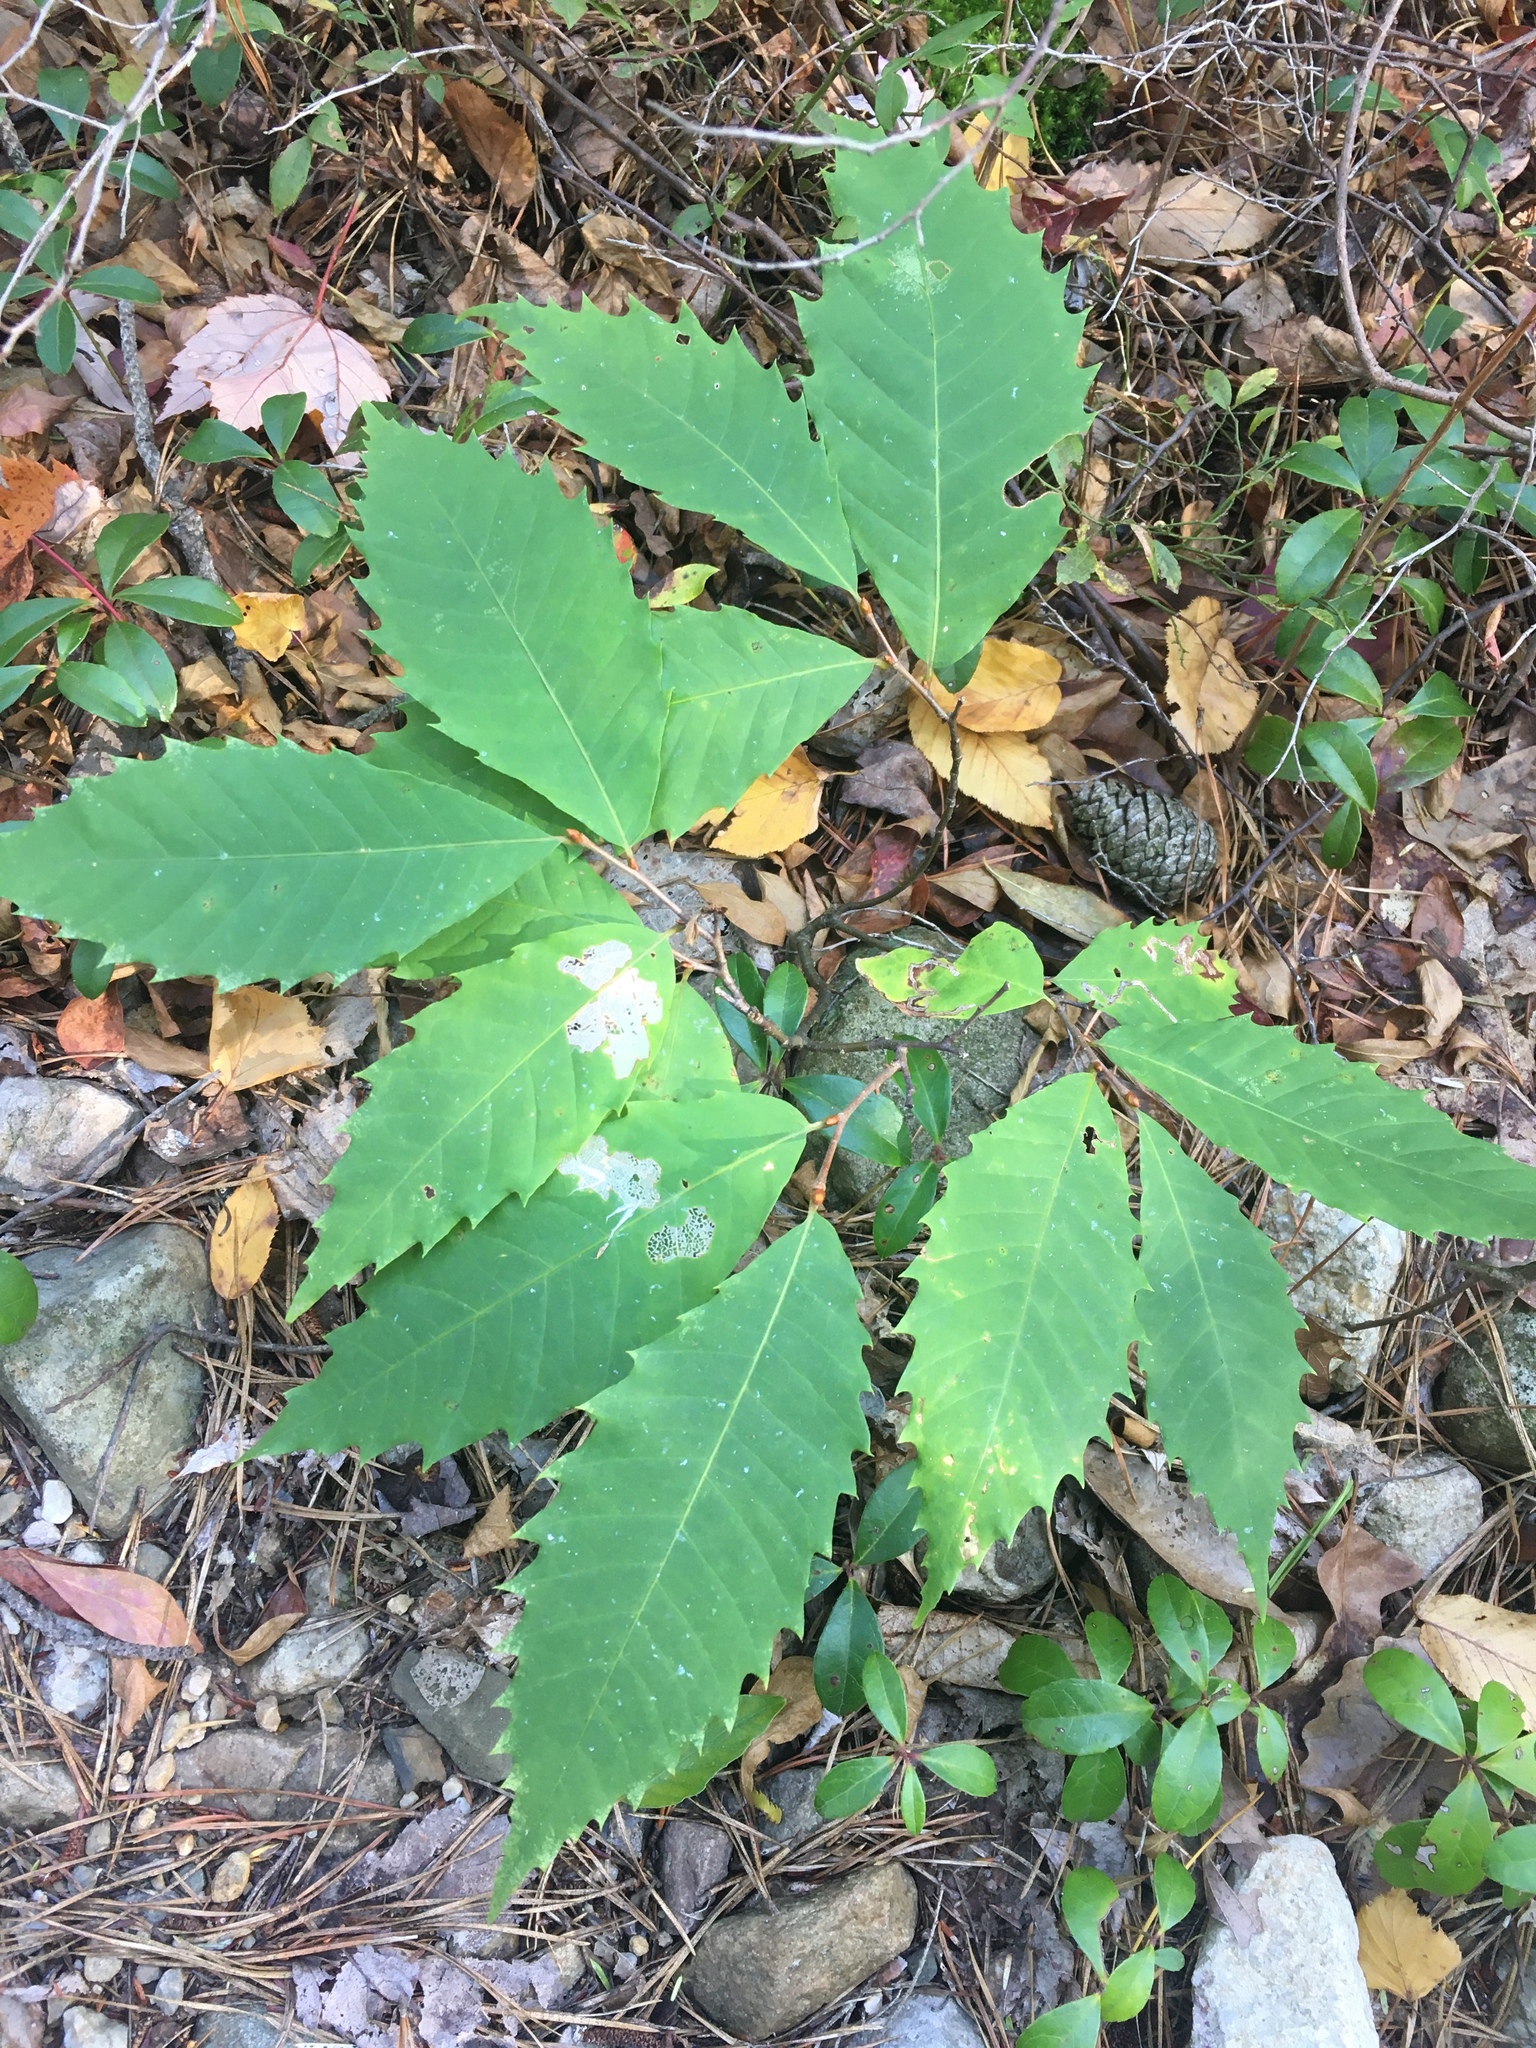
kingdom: Plantae
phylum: Tracheophyta
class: Magnoliopsida
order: Fagales
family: Fagaceae
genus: Castanea
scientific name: Castanea dentata
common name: American chestnut
